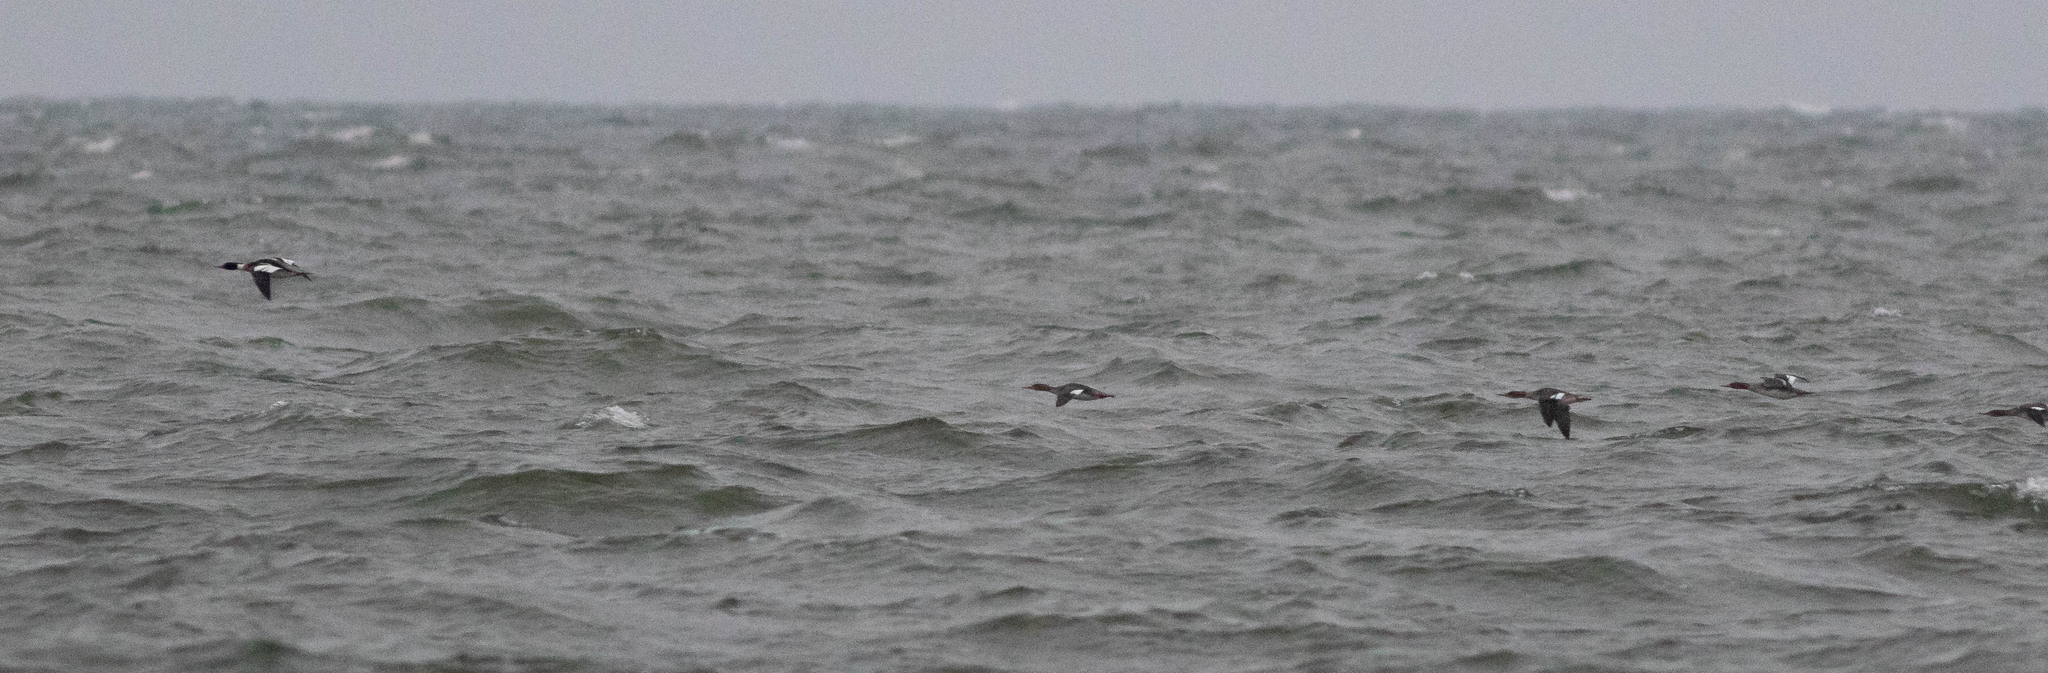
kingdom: Animalia
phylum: Chordata
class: Aves
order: Anseriformes
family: Anatidae
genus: Mergus
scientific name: Mergus serrator
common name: Red-breasted merganser
